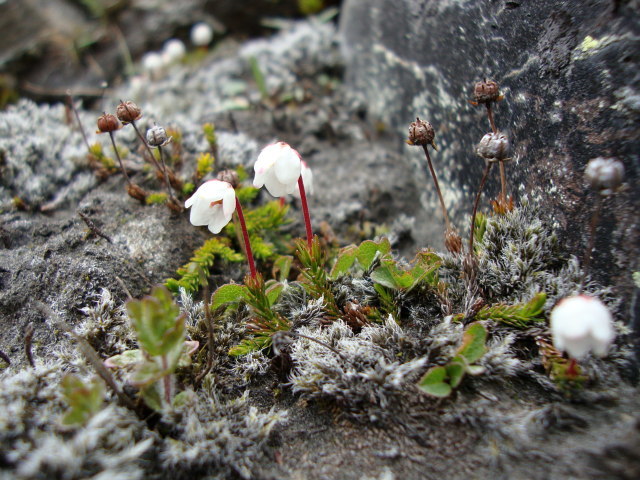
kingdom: Plantae
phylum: Tracheophyta
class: Magnoliopsida
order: Ericales
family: Ericaceae
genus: Harrimanella
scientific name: Harrimanella hypnoides
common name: Moss bell heather
